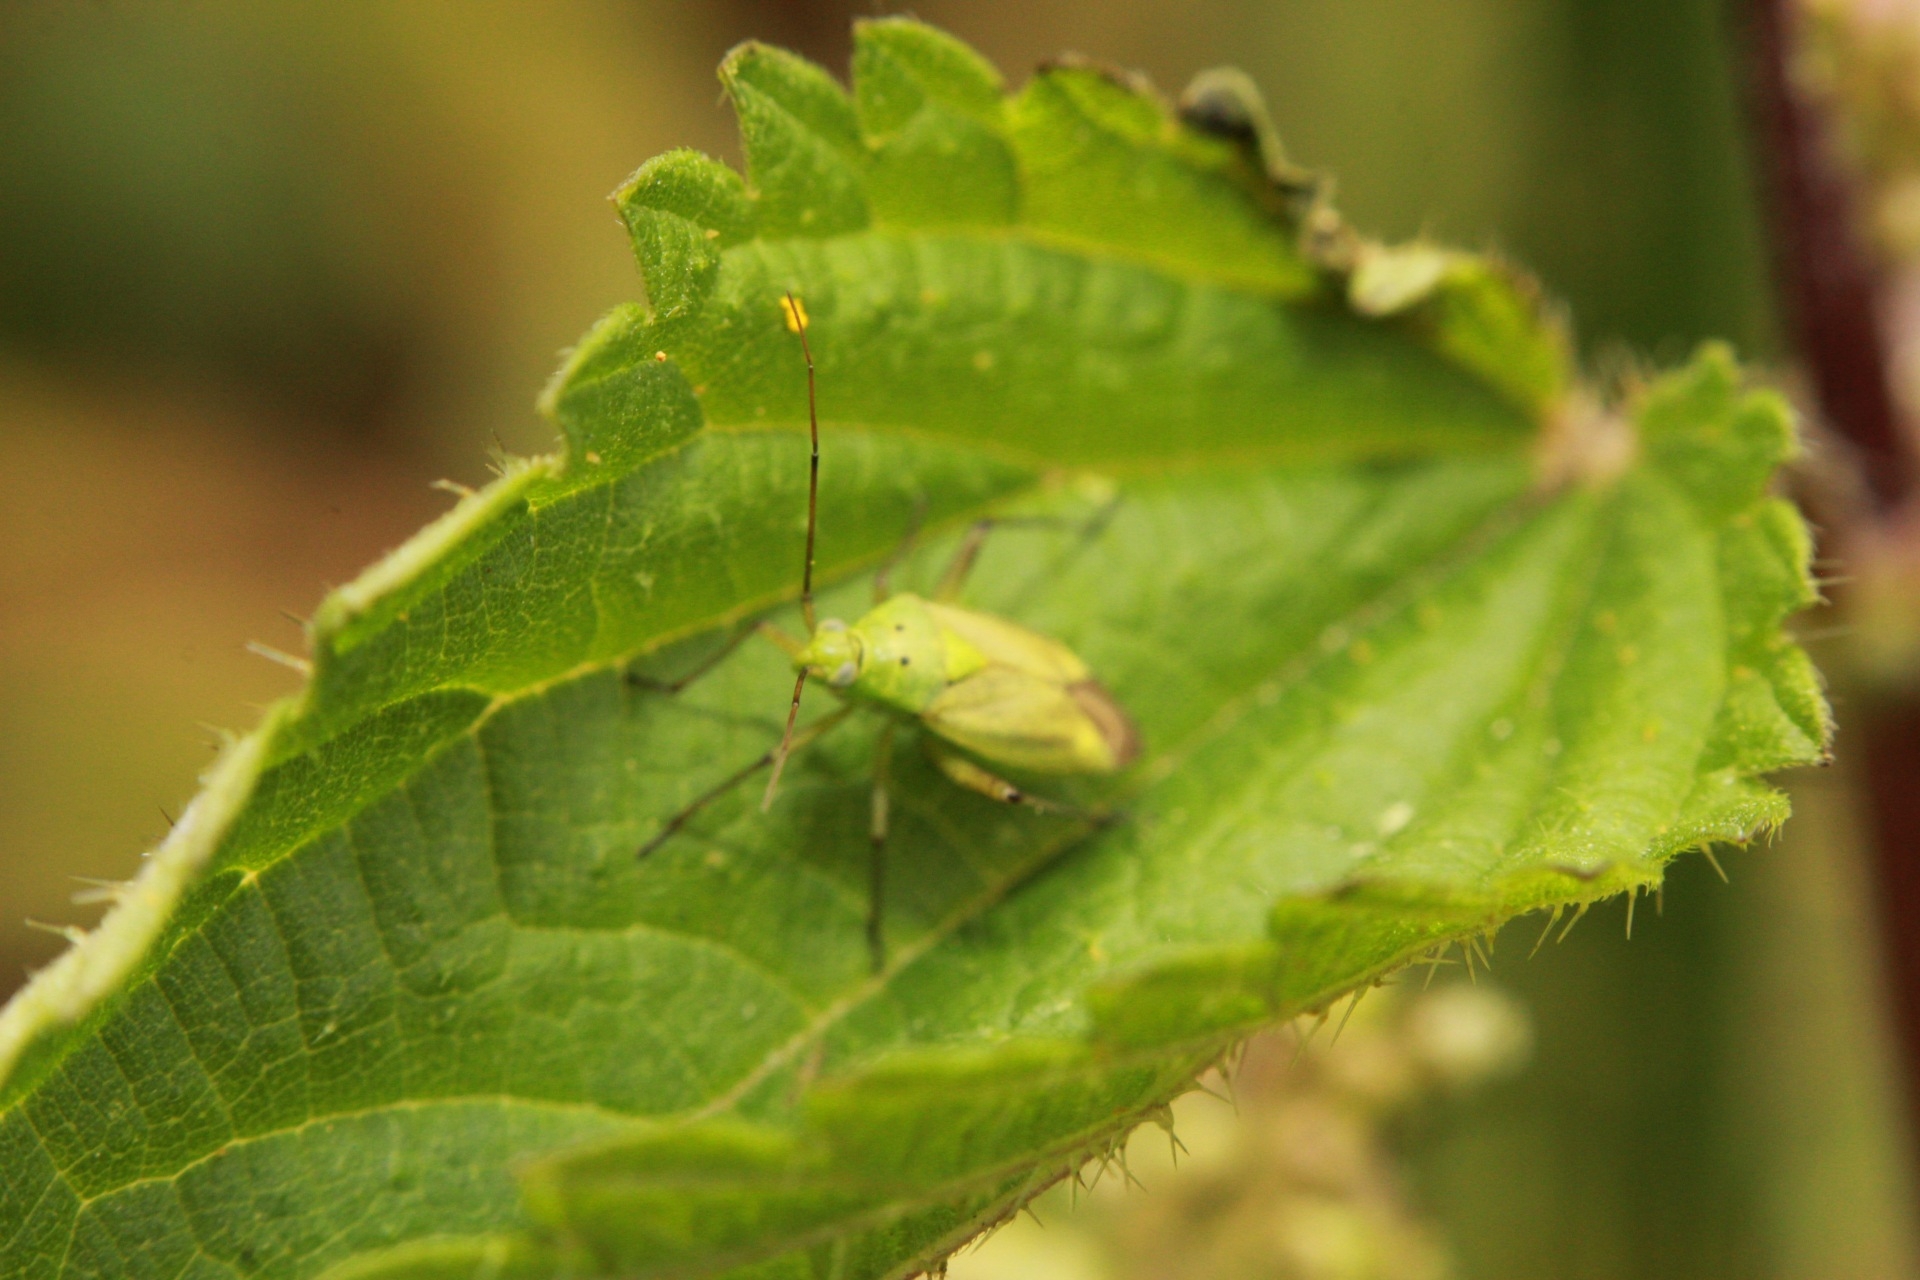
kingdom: Animalia
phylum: Arthropoda
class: Insecta
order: Hemiptera
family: Miridae
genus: Closterotomus
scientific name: Closterotomus norvegicus
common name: Plant bug
